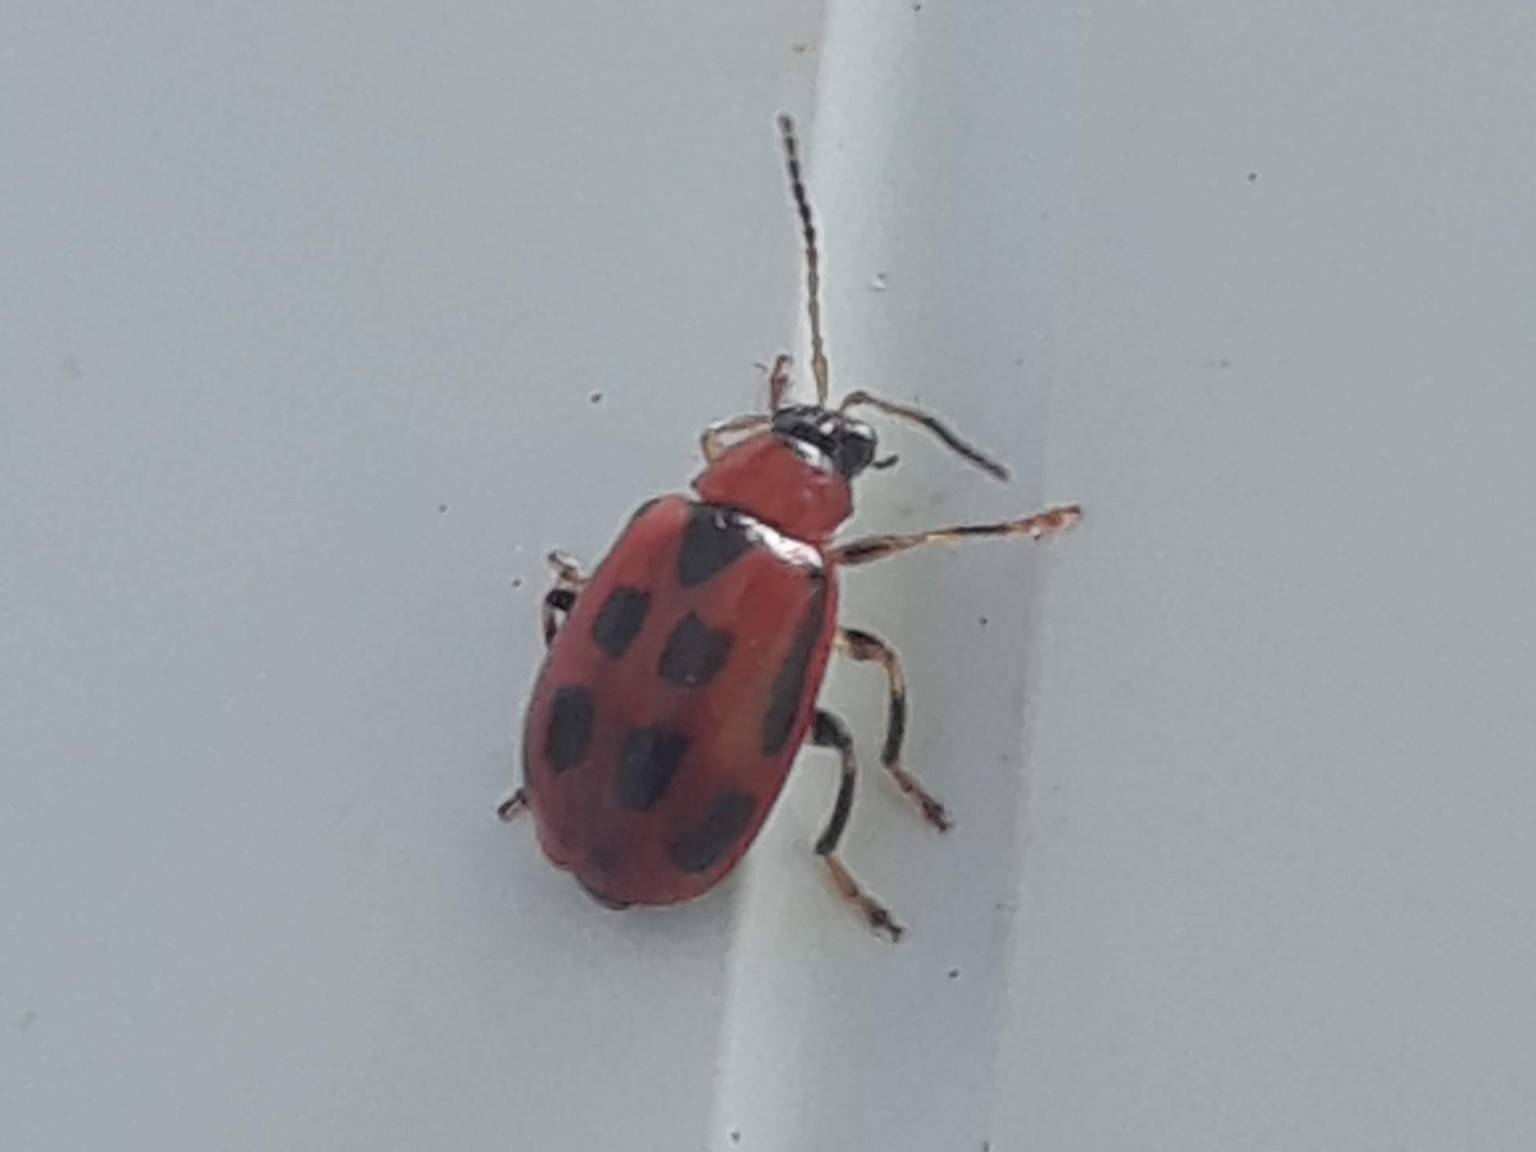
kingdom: Animalia
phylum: Arthropoda
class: Insecta
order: Coleoptera
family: Chrysomelidae
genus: Cerotoma
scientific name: Cerotoma trifurcata
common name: Bean leaf beetle
